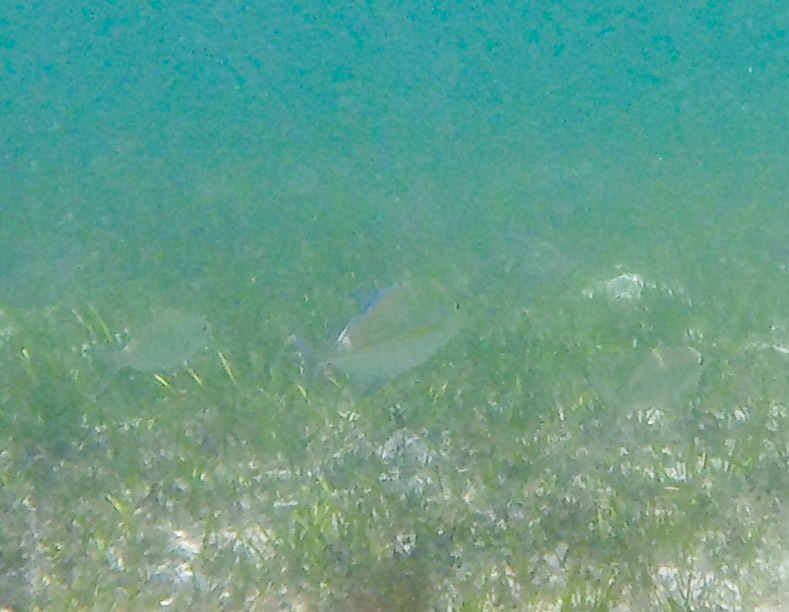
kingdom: Animalia
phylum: Chordata
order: Perciformes
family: Carangidae
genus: Caranx
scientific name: Caranx melampygus
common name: Bluefin trevally
